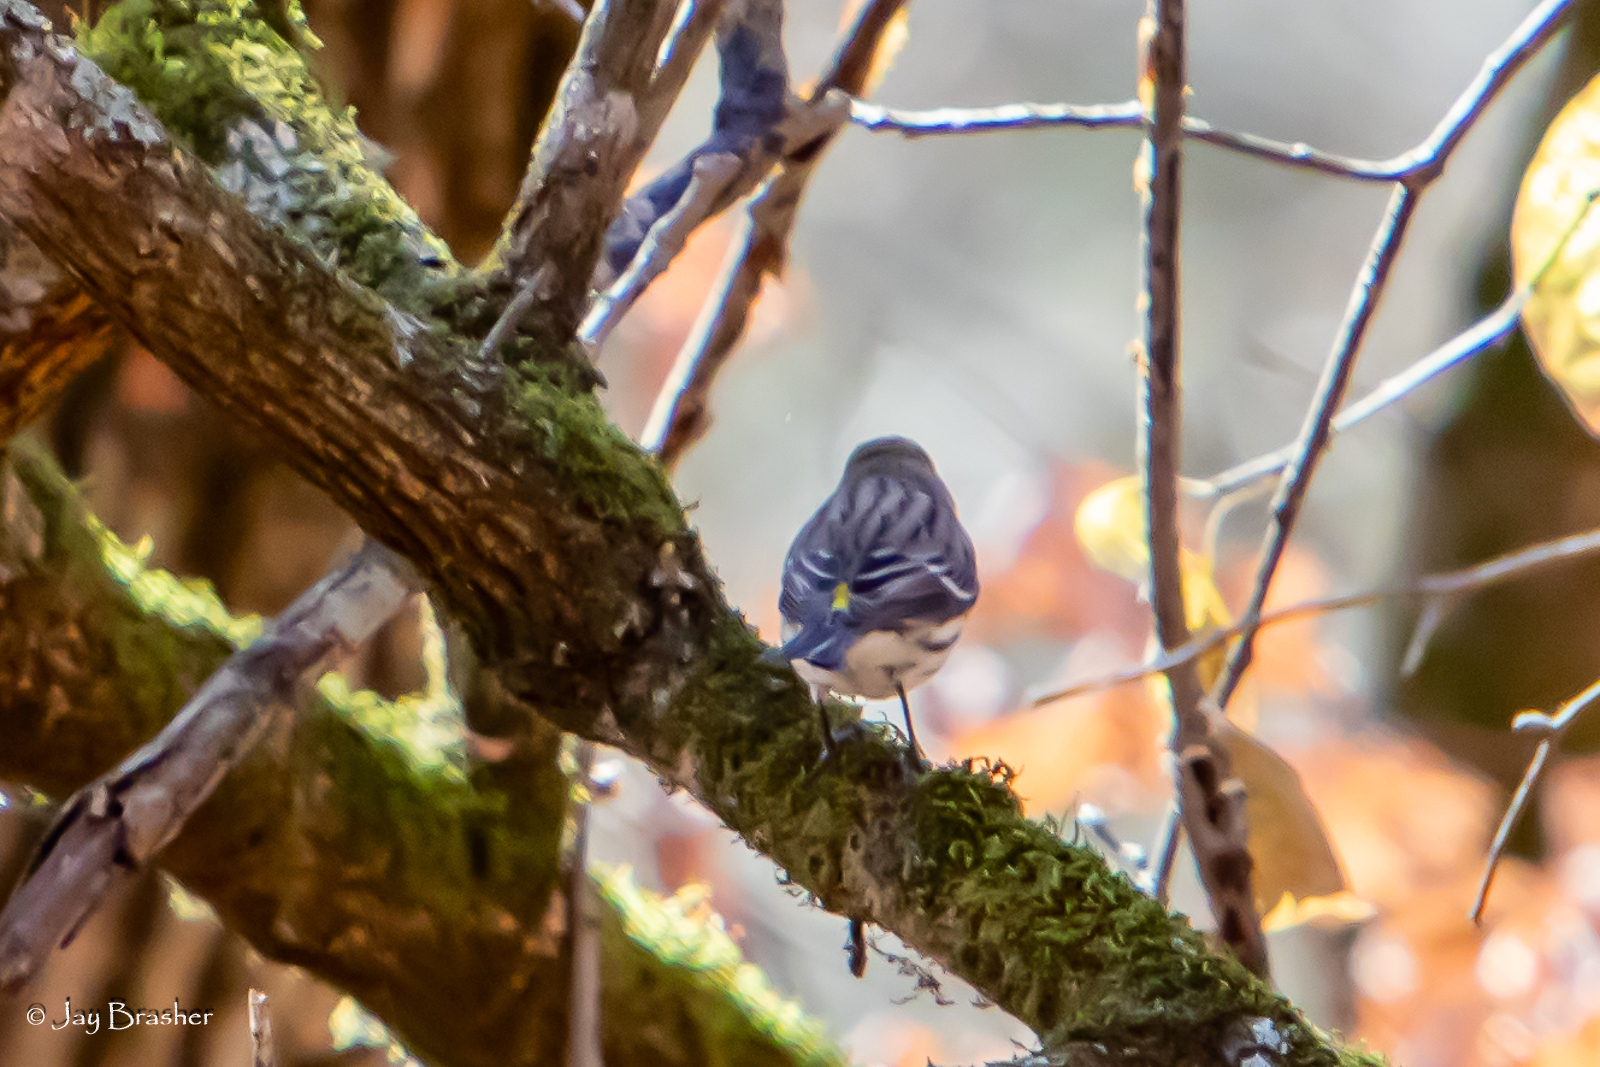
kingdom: Animalia
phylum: Chordata
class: Aves
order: Passeriformes
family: Parulidae
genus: Setophaga
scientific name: Setophaga coronata
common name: Myrtle warbler
